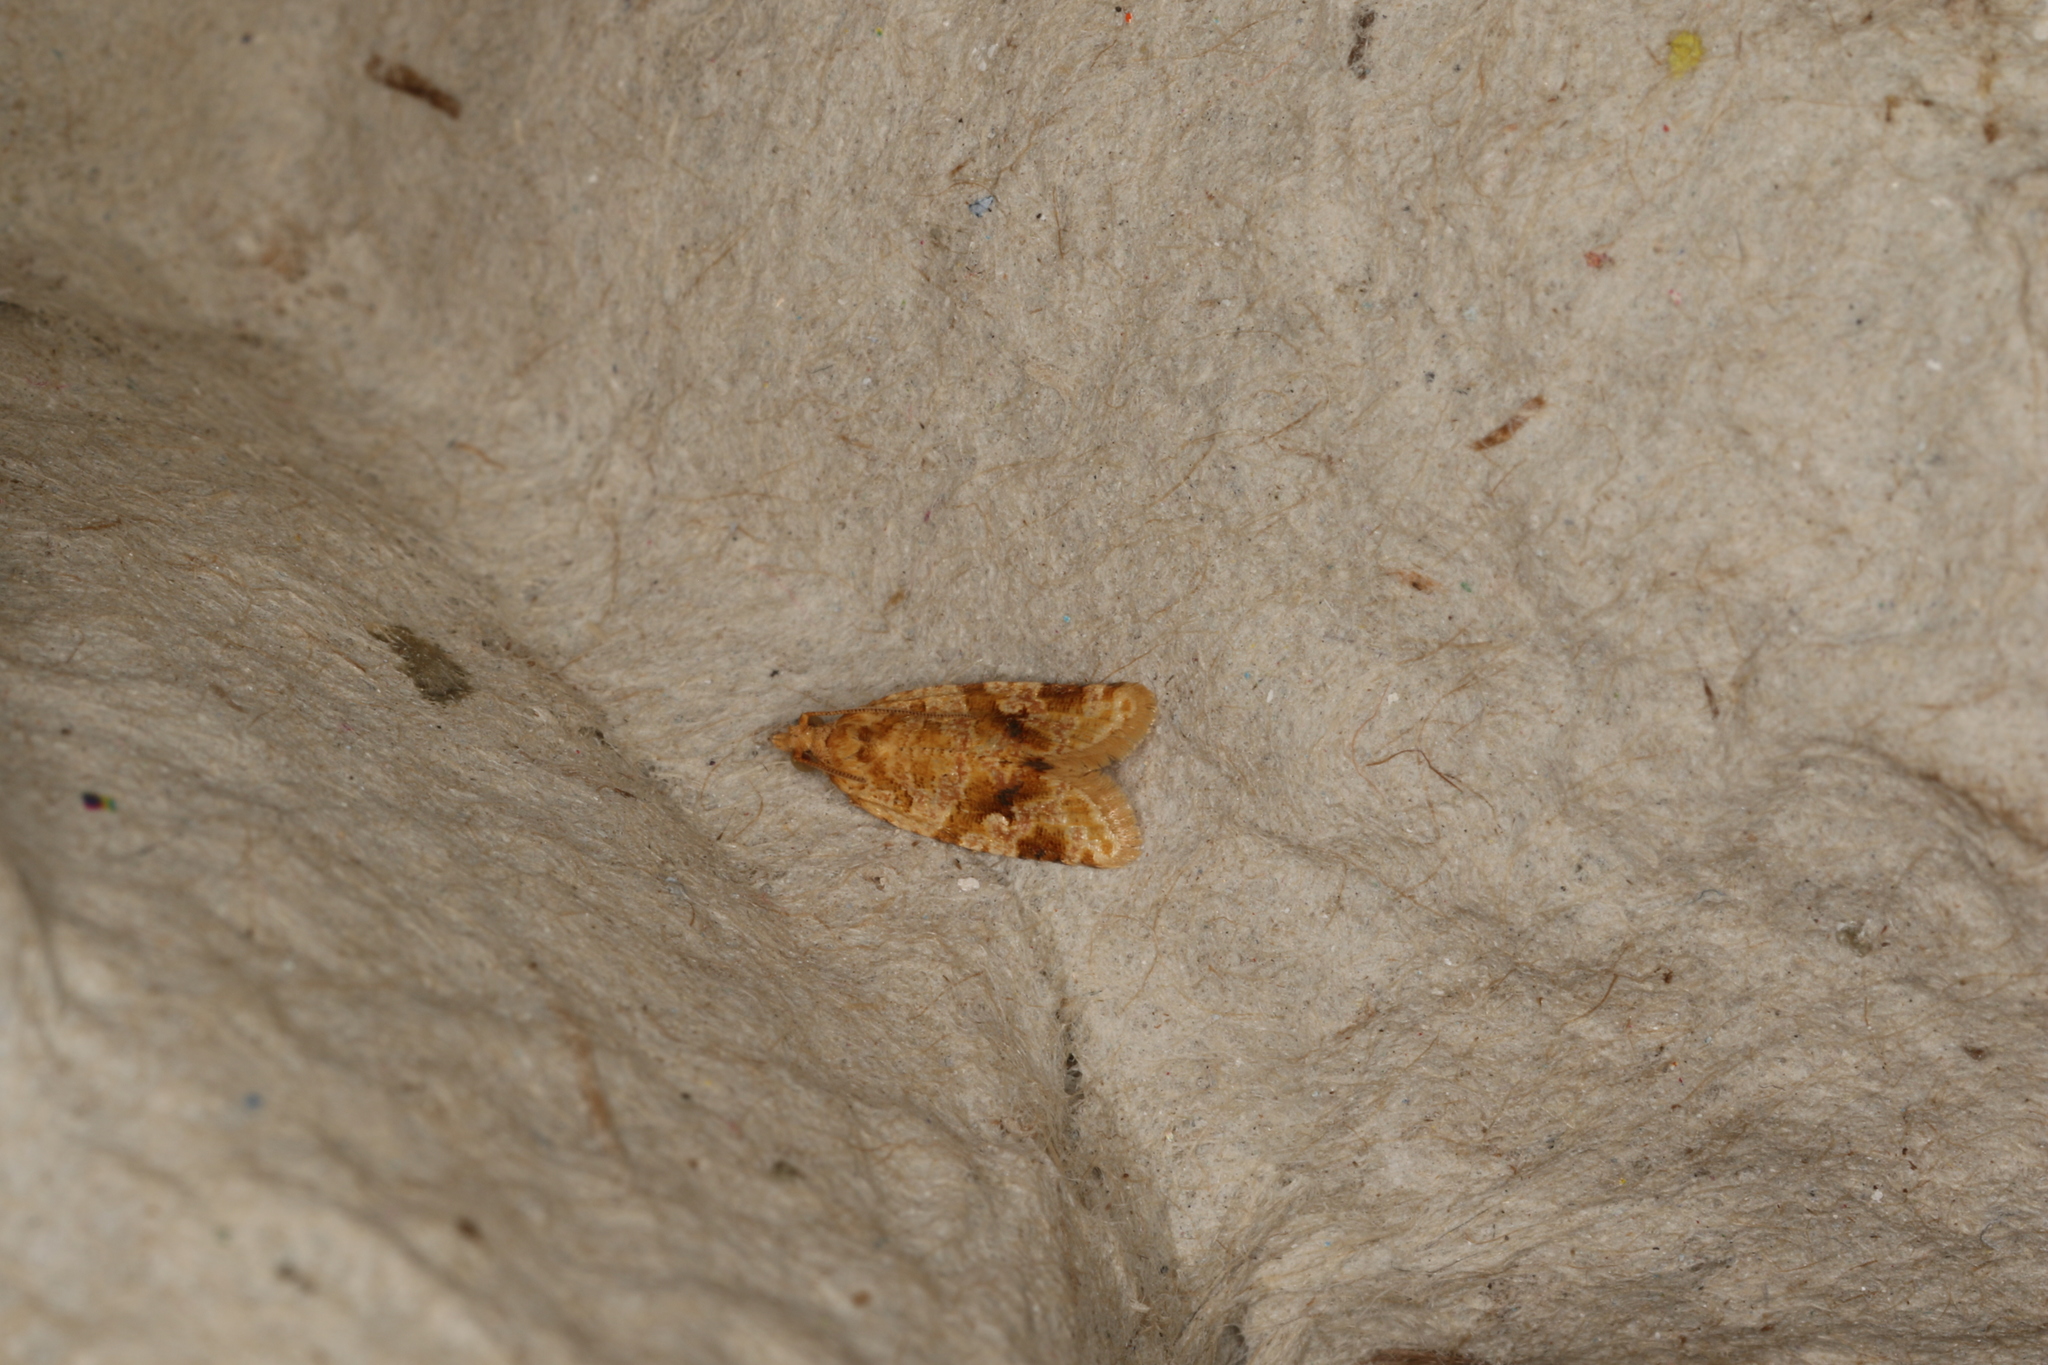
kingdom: Animalia
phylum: Arthropoda
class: Insecta
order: Lepidoptera
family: Tortricidae
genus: Epitymbia
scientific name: Epitymbia eudrosa
